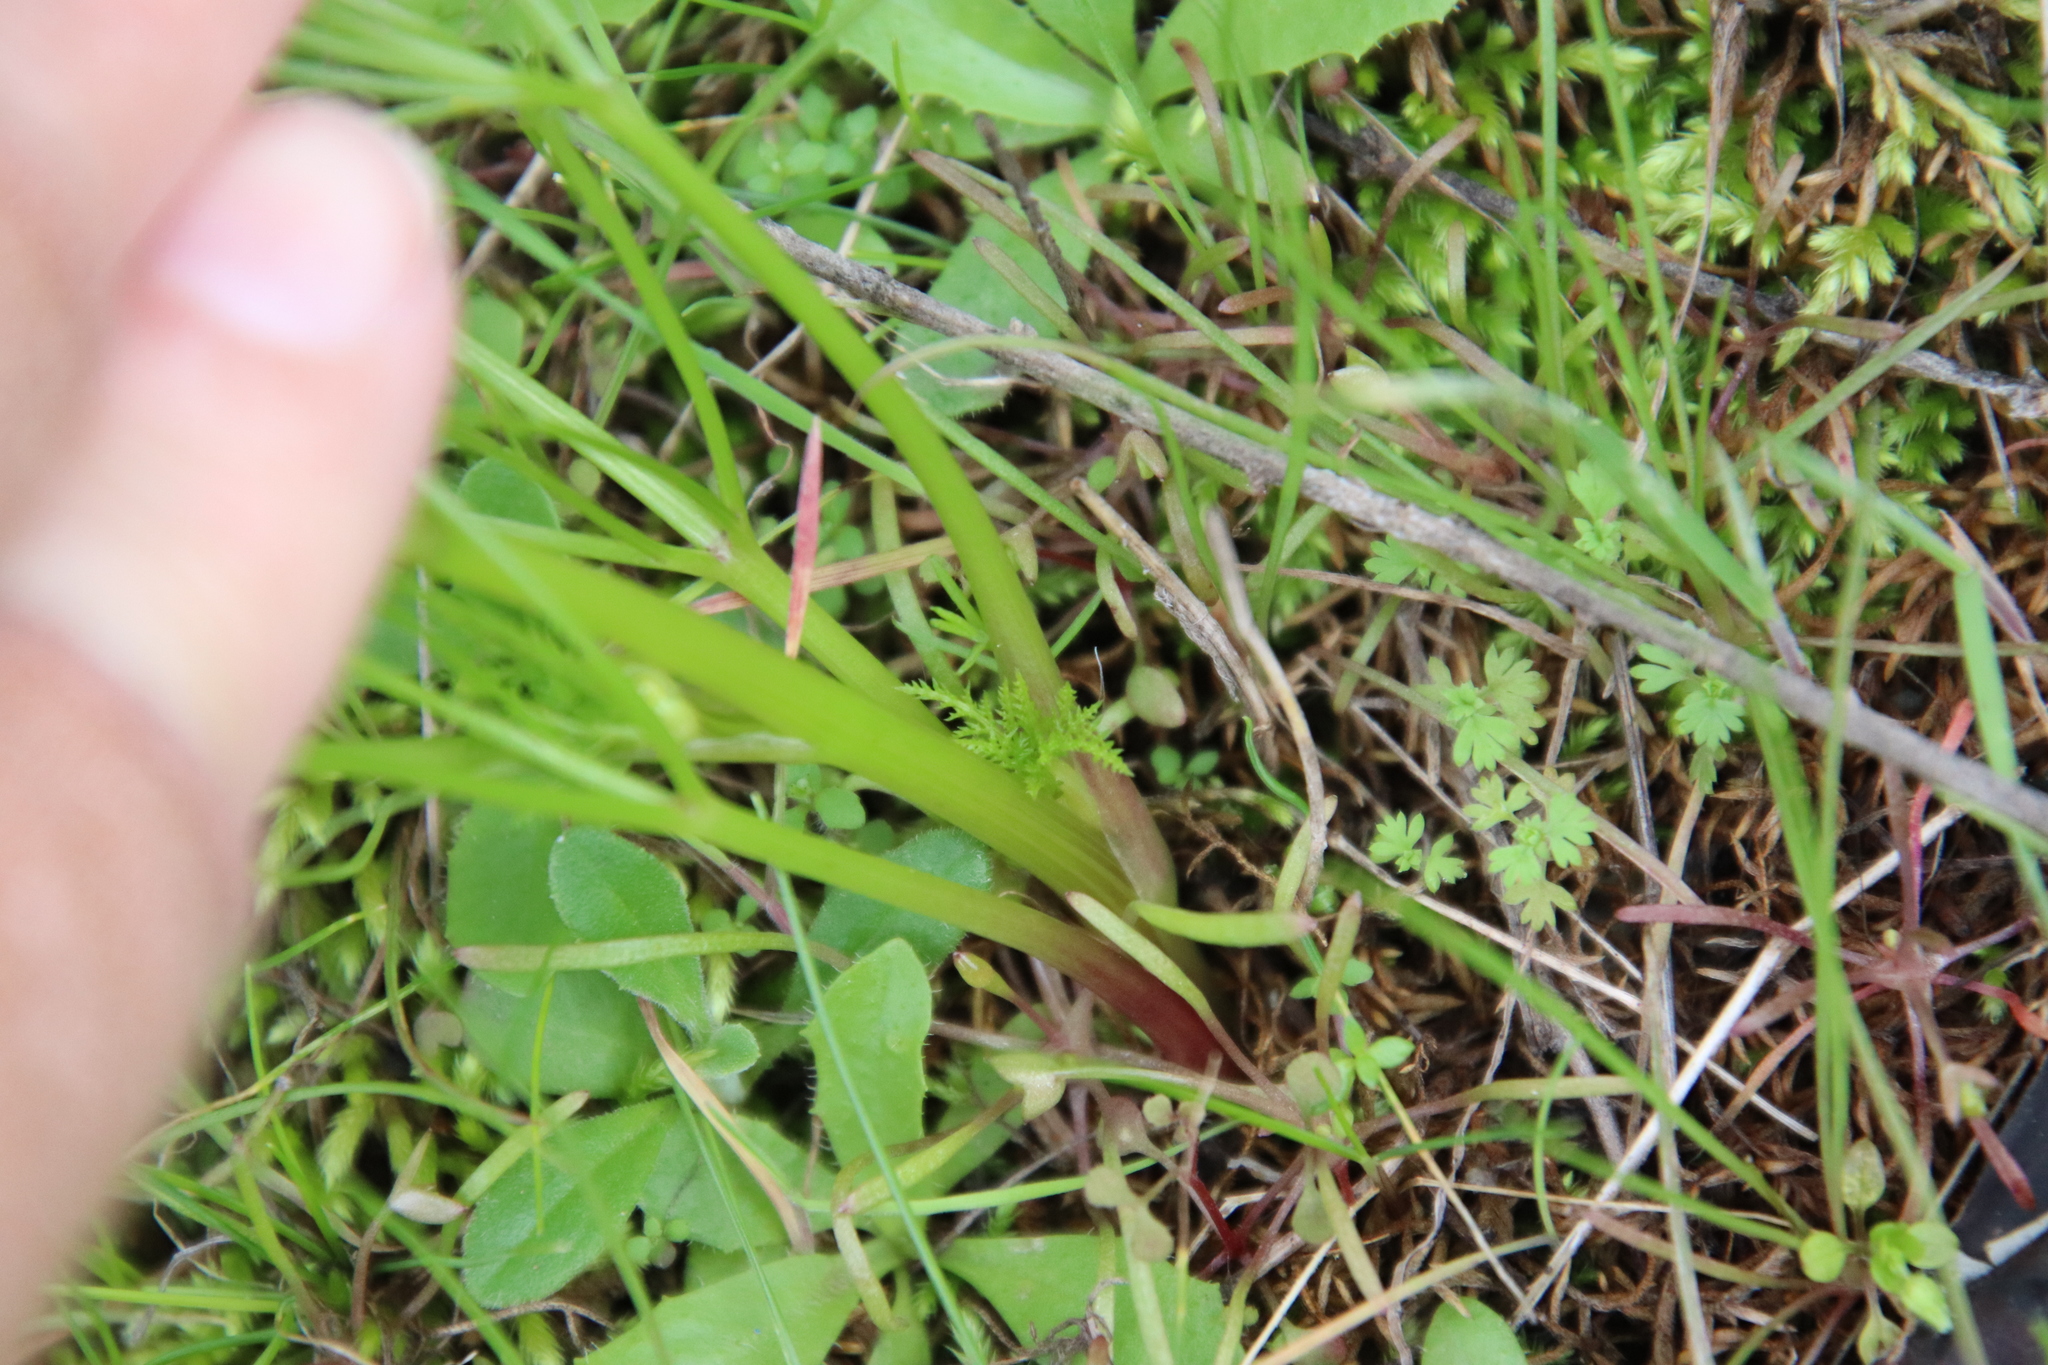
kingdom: Plantae
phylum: Tracheophyta
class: Magnoliopsida
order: Apiales
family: Apiaceae
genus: Sanicula
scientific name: Sanicula tuberosa
